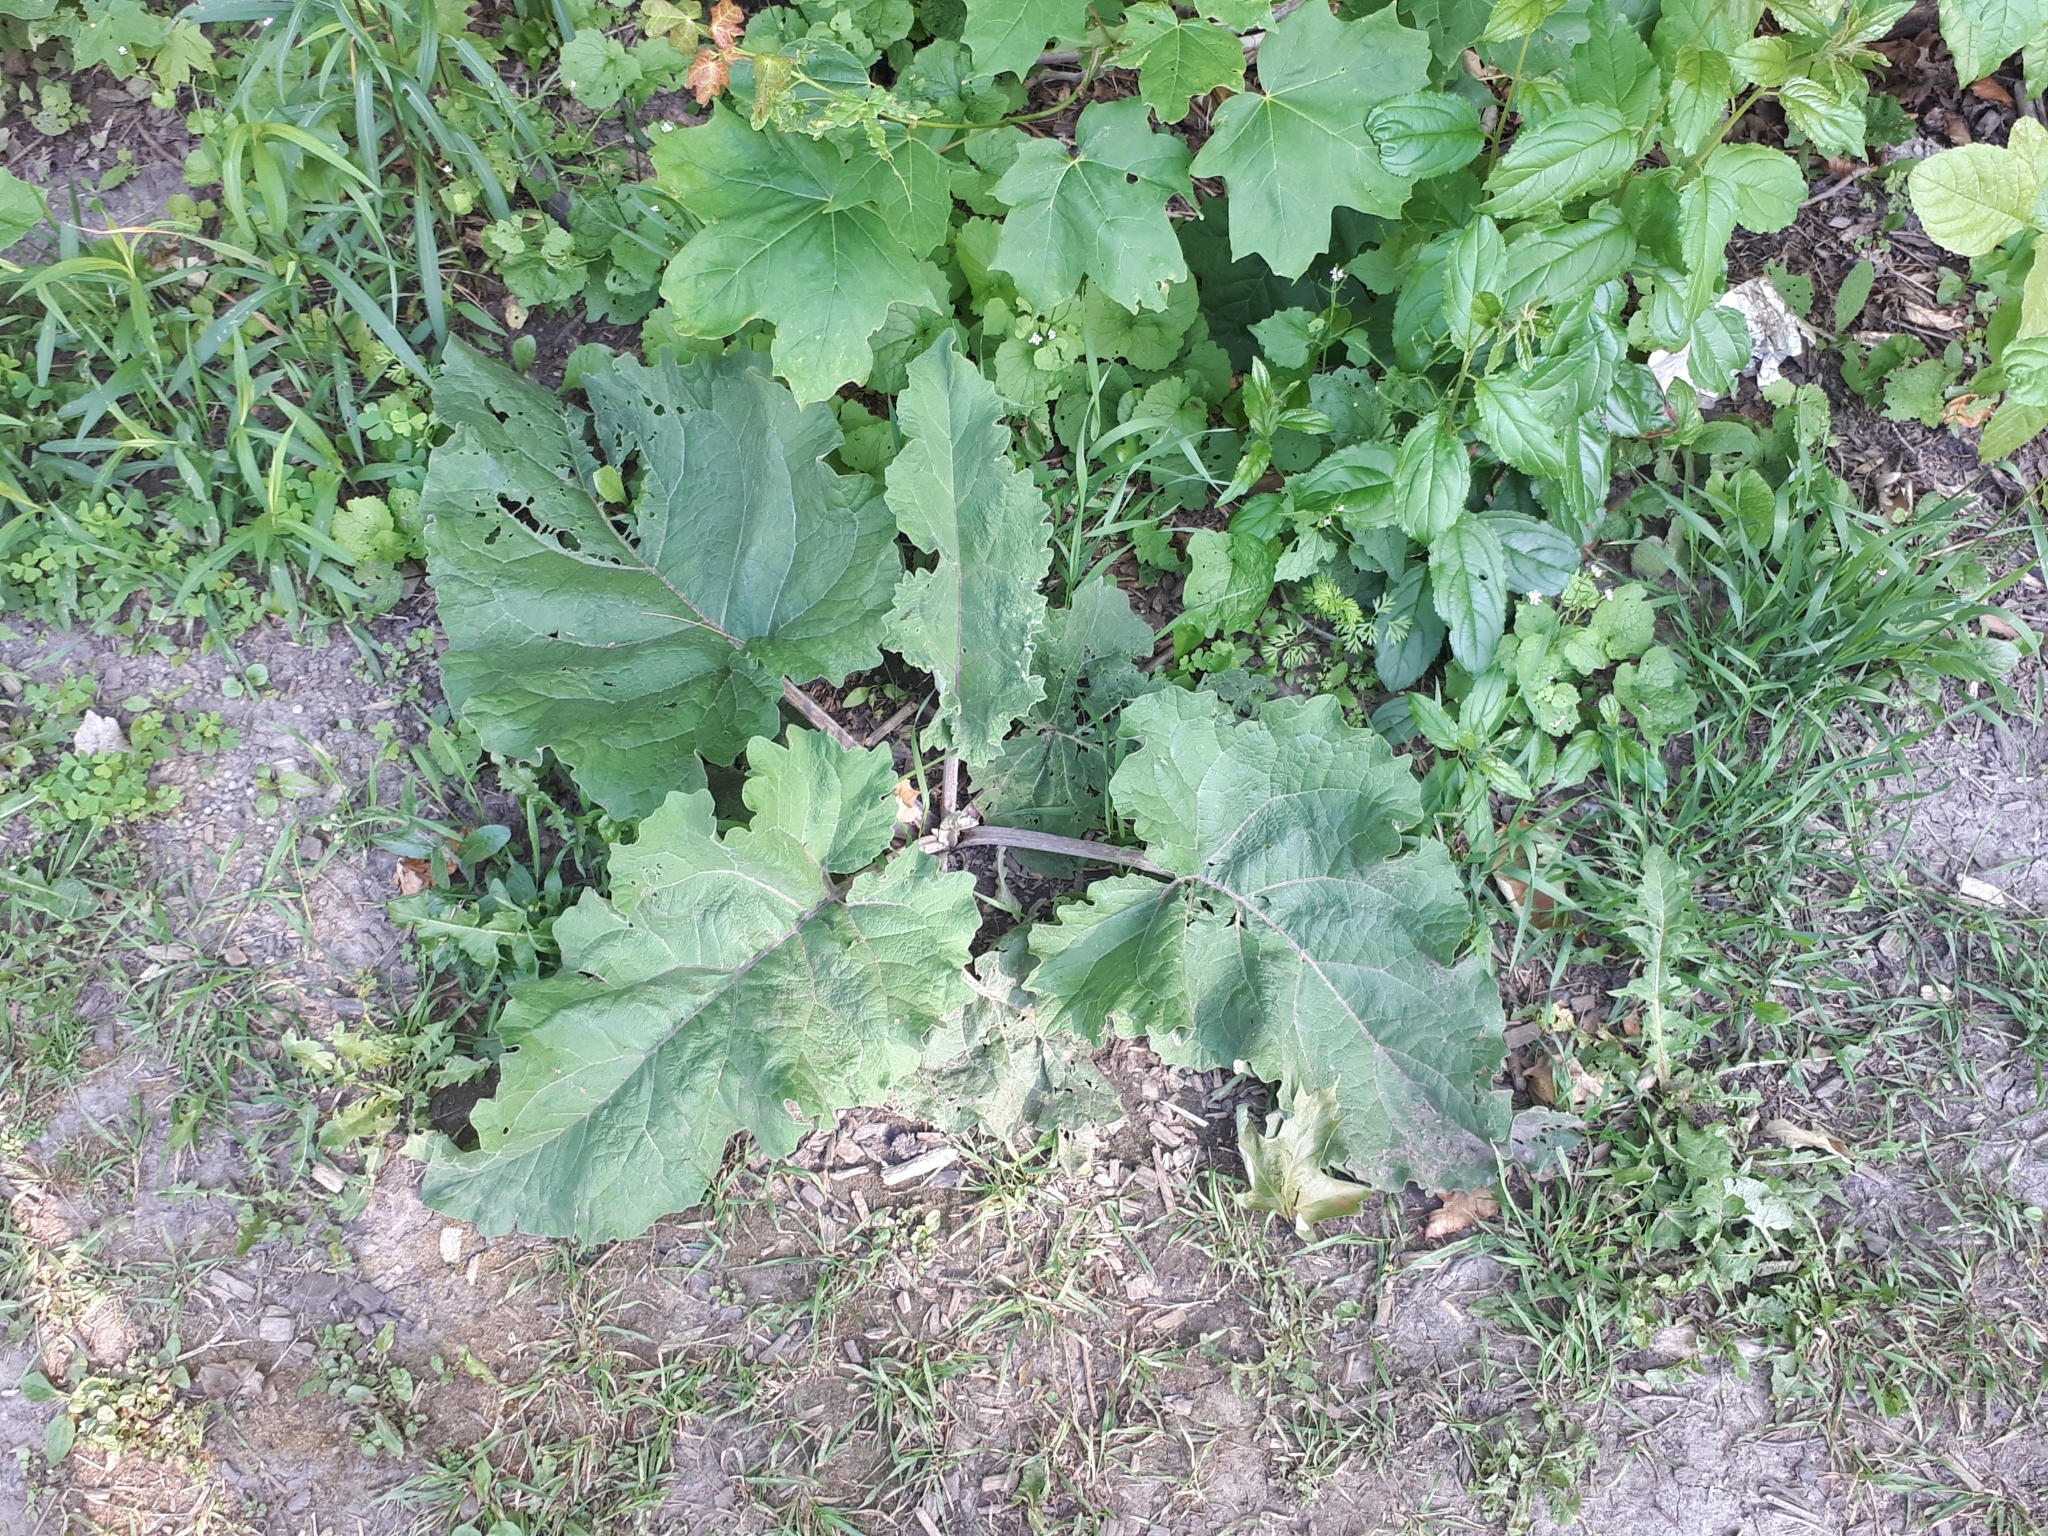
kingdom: Plantae
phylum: Tracheophyta
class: Magnoliopsida
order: Asterales
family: Asteraceae
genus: Arctium
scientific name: Arctium lappa
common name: Greater burdock
